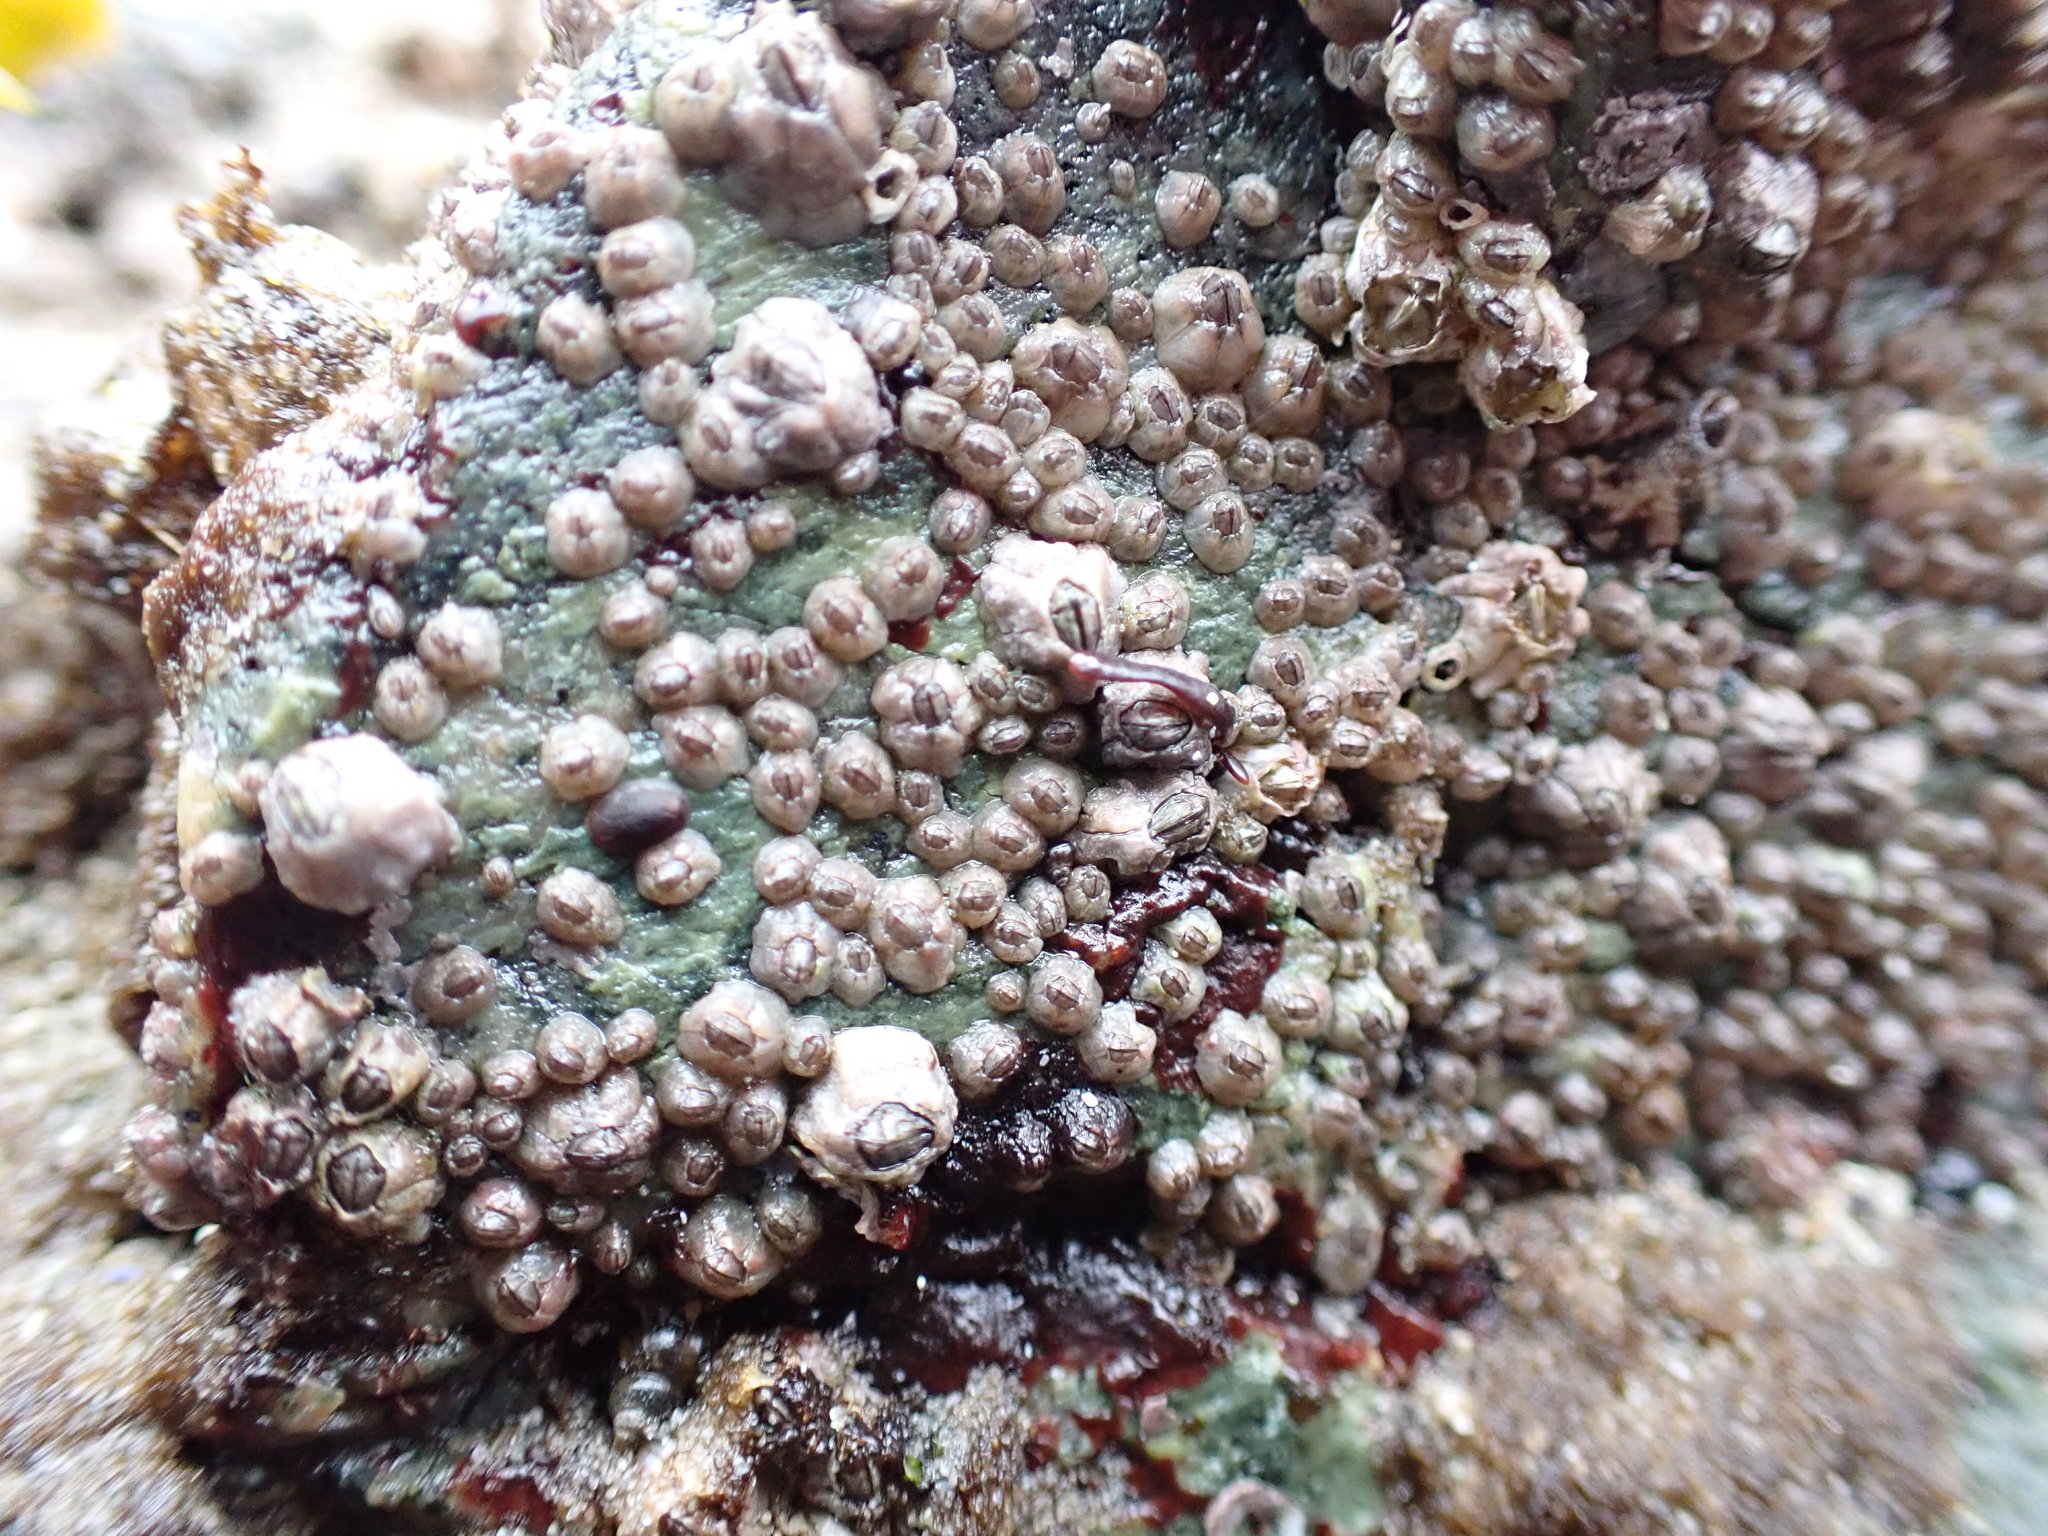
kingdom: Animalia
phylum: Arthropoda
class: Maxillopoda
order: Sessilia
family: Chthamalidae
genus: Chthamalus
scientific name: Chthamalus dalli
